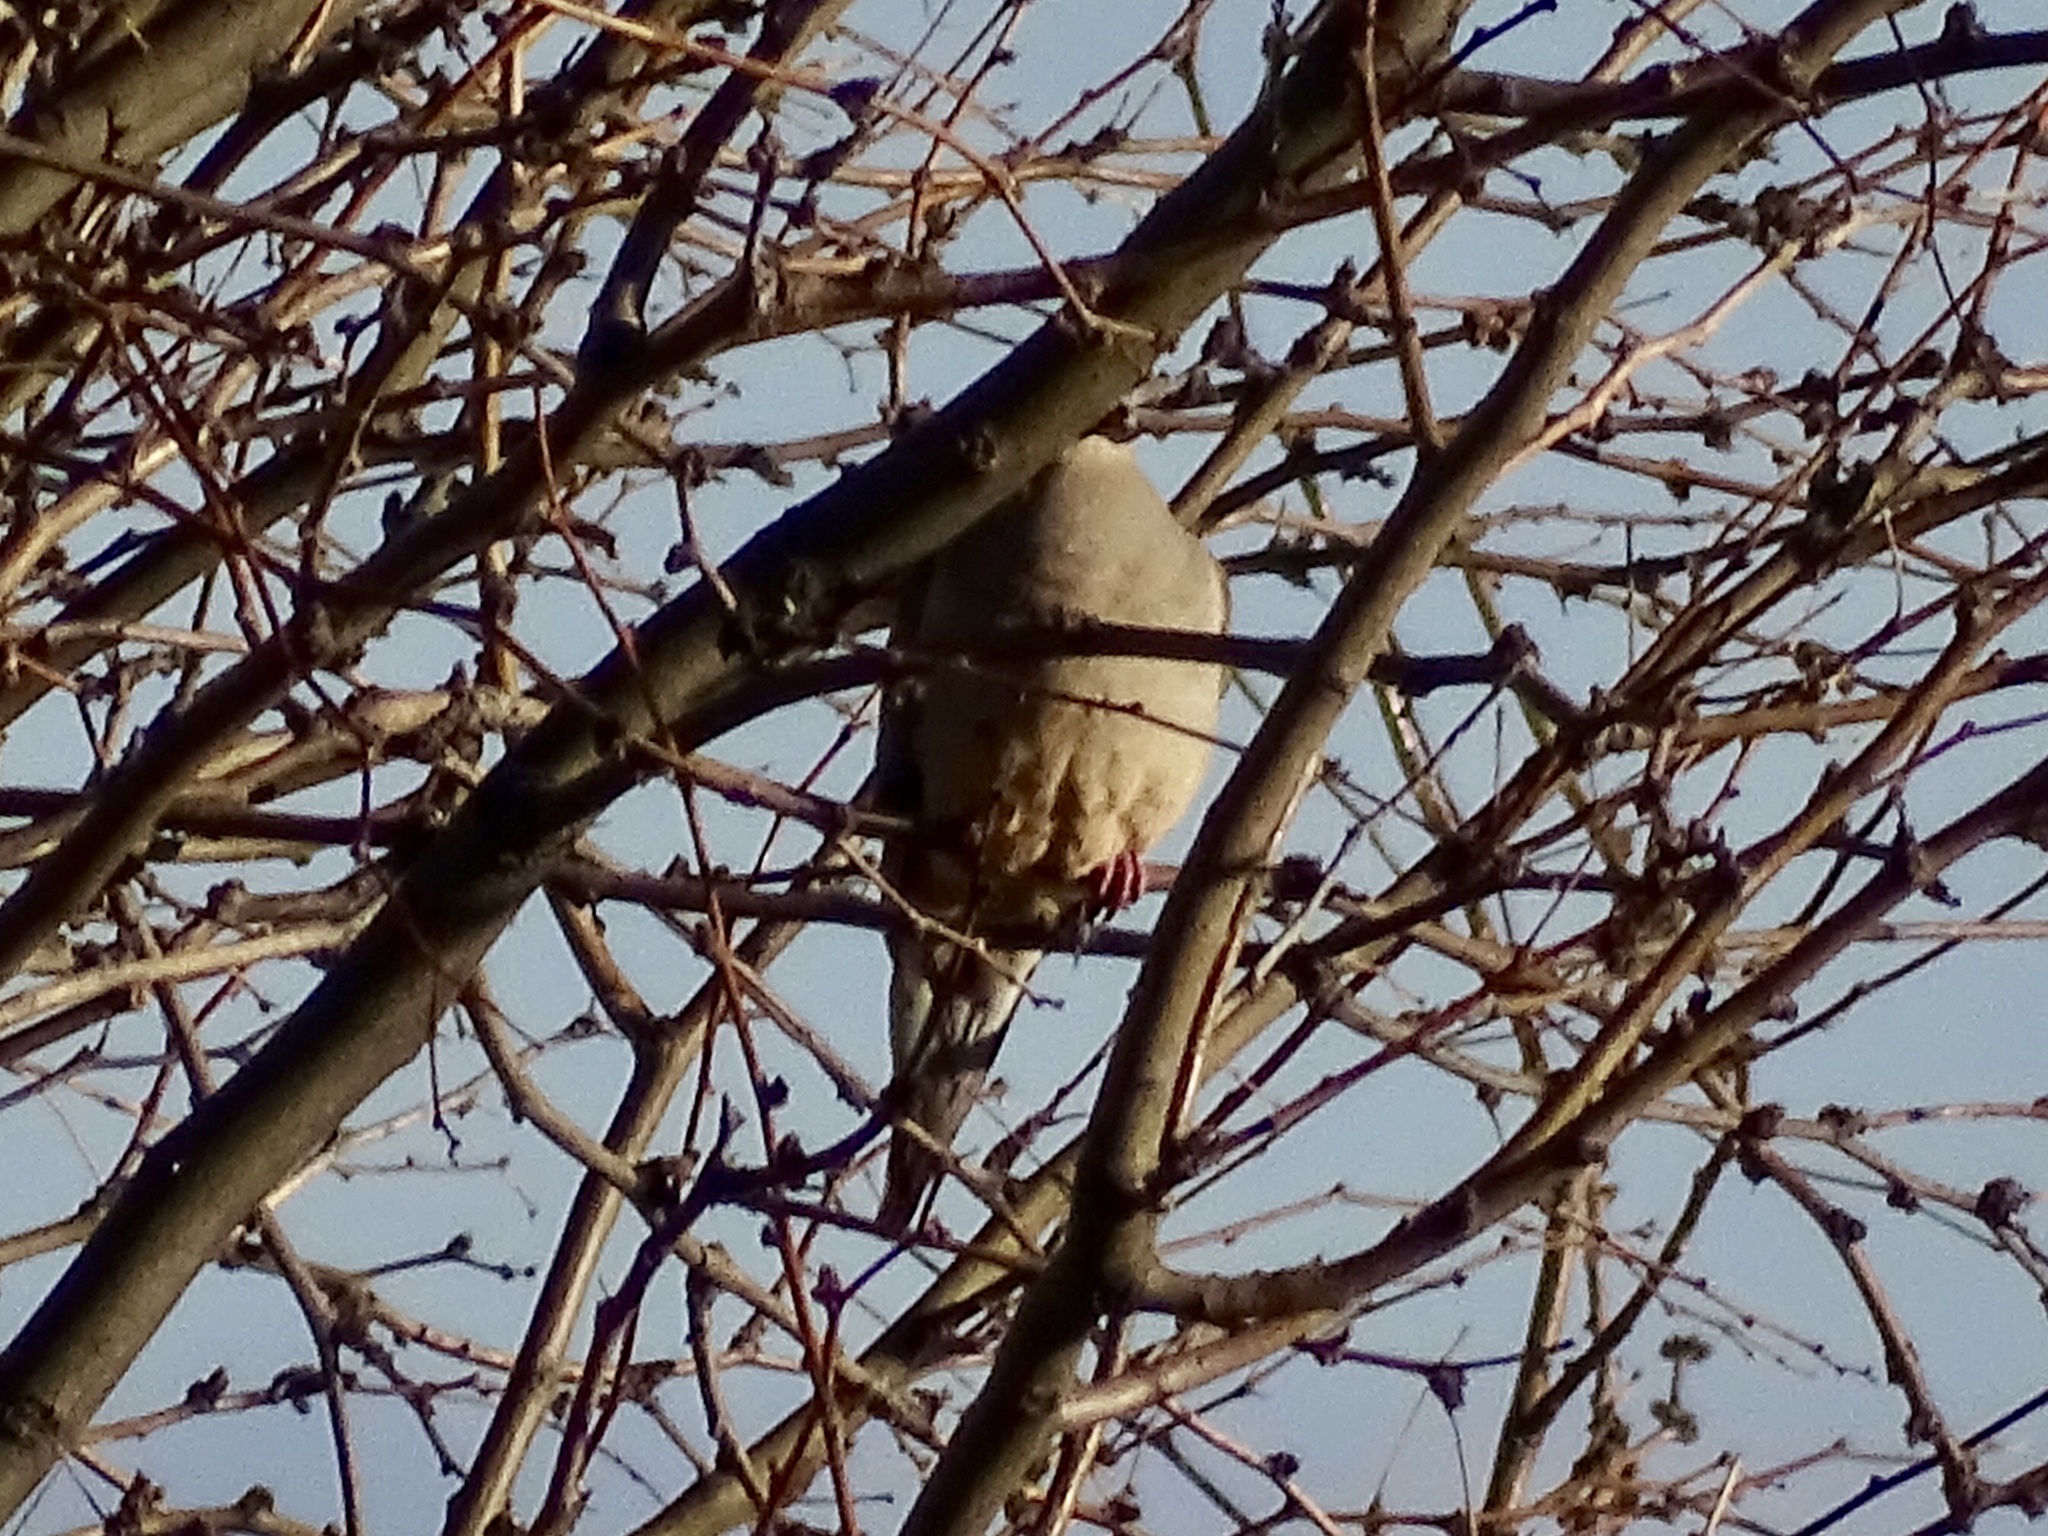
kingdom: Animalia
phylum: Chordata
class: Aves
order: Columbiformes
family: Columbidae
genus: Zenaida
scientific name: Zenaida macroura
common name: Mourning dove
